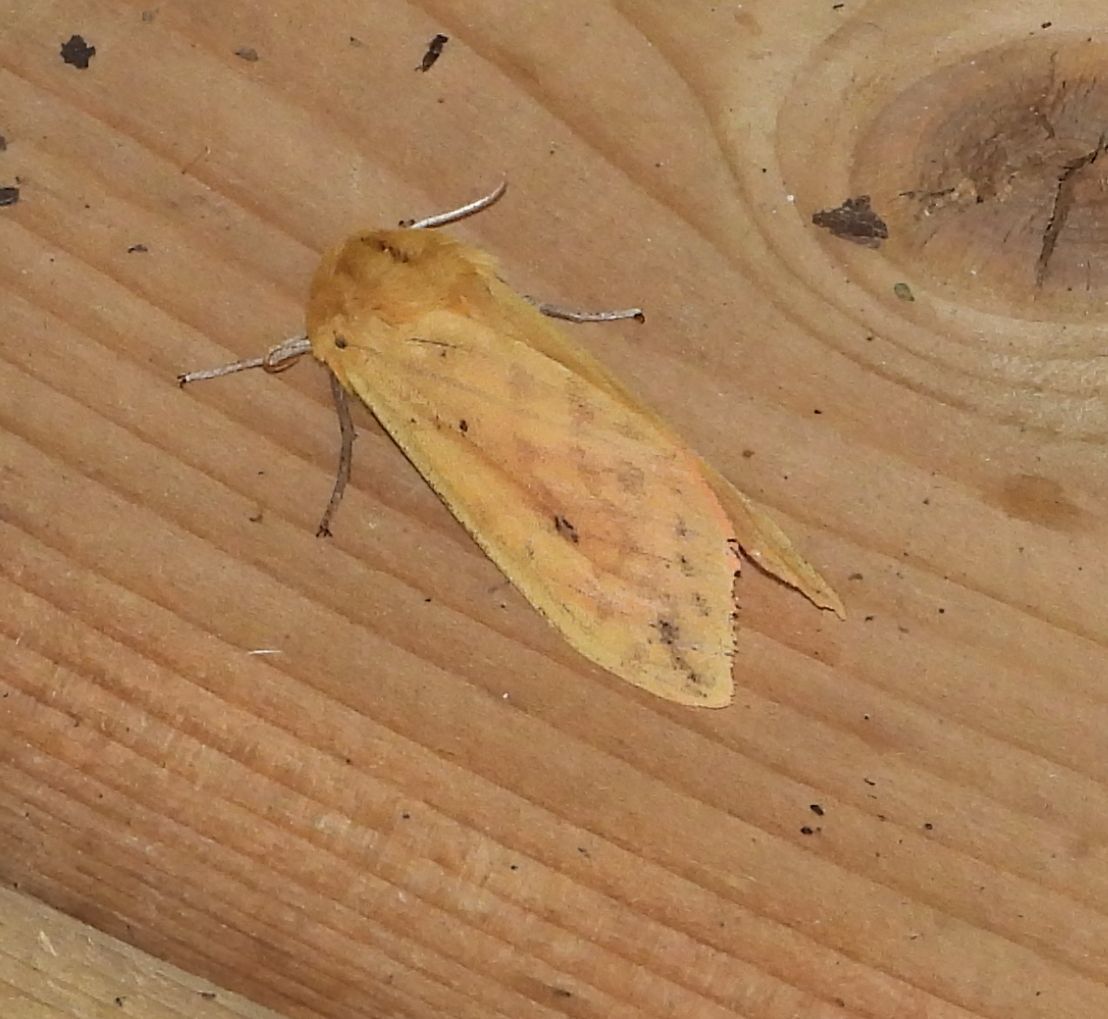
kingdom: Animalia
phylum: Arthropoda
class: Insecta
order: Lepidoptera
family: Erebidae
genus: Pyrrharctia
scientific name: Pyrrharctia isabella
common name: Isabella tiger moth
